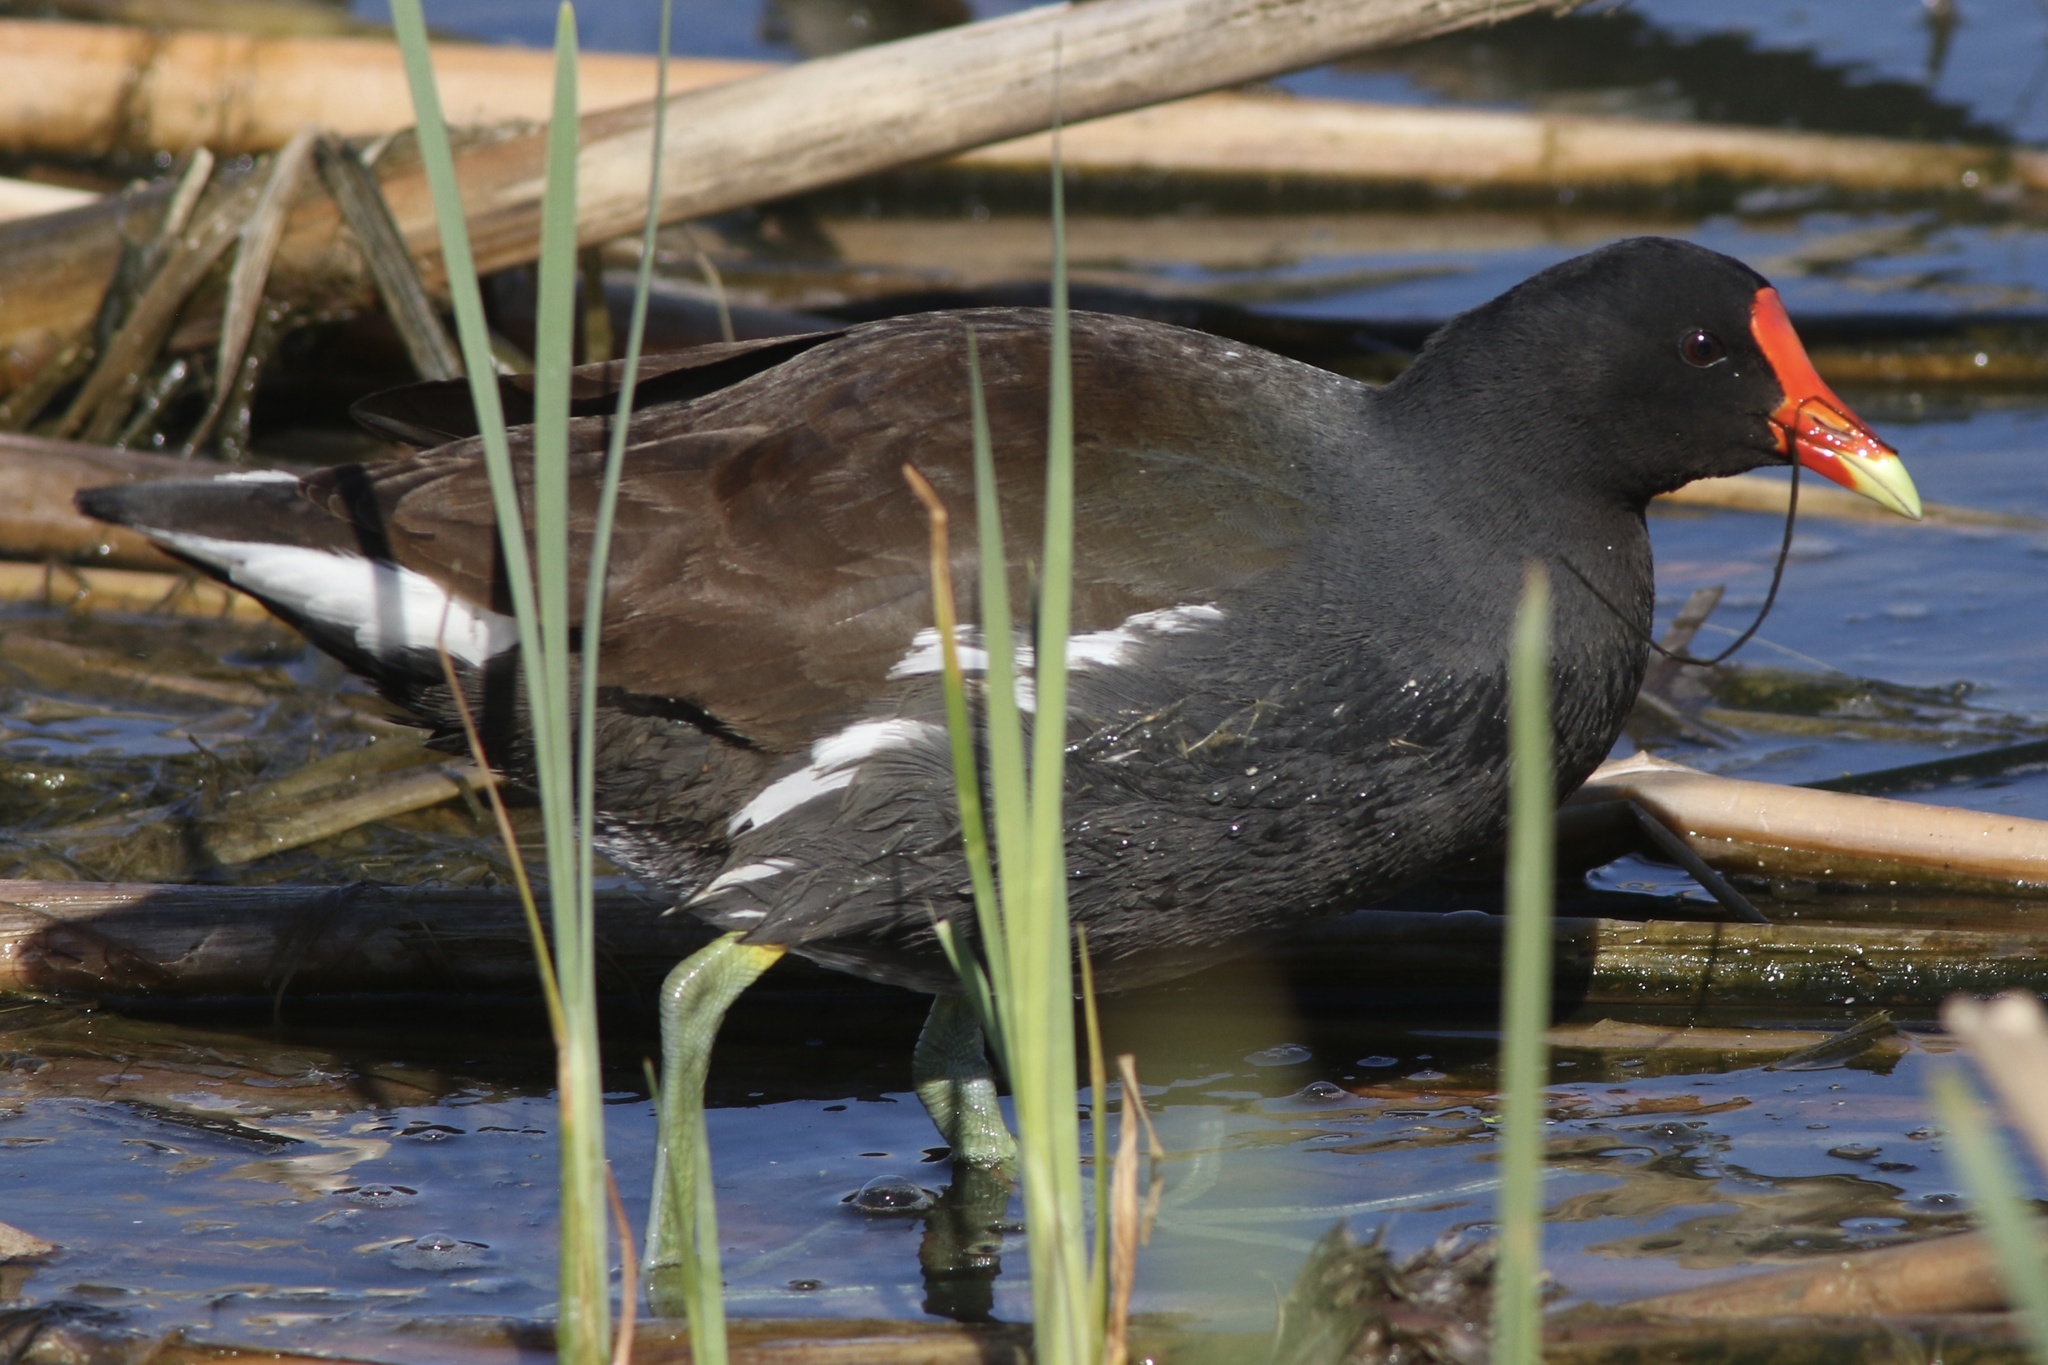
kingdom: Animalia
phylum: Chordata
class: Aves
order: Gruiformes
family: Rallidae
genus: Gallinula
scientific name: Gallinula chloropus
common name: Common moorhen
